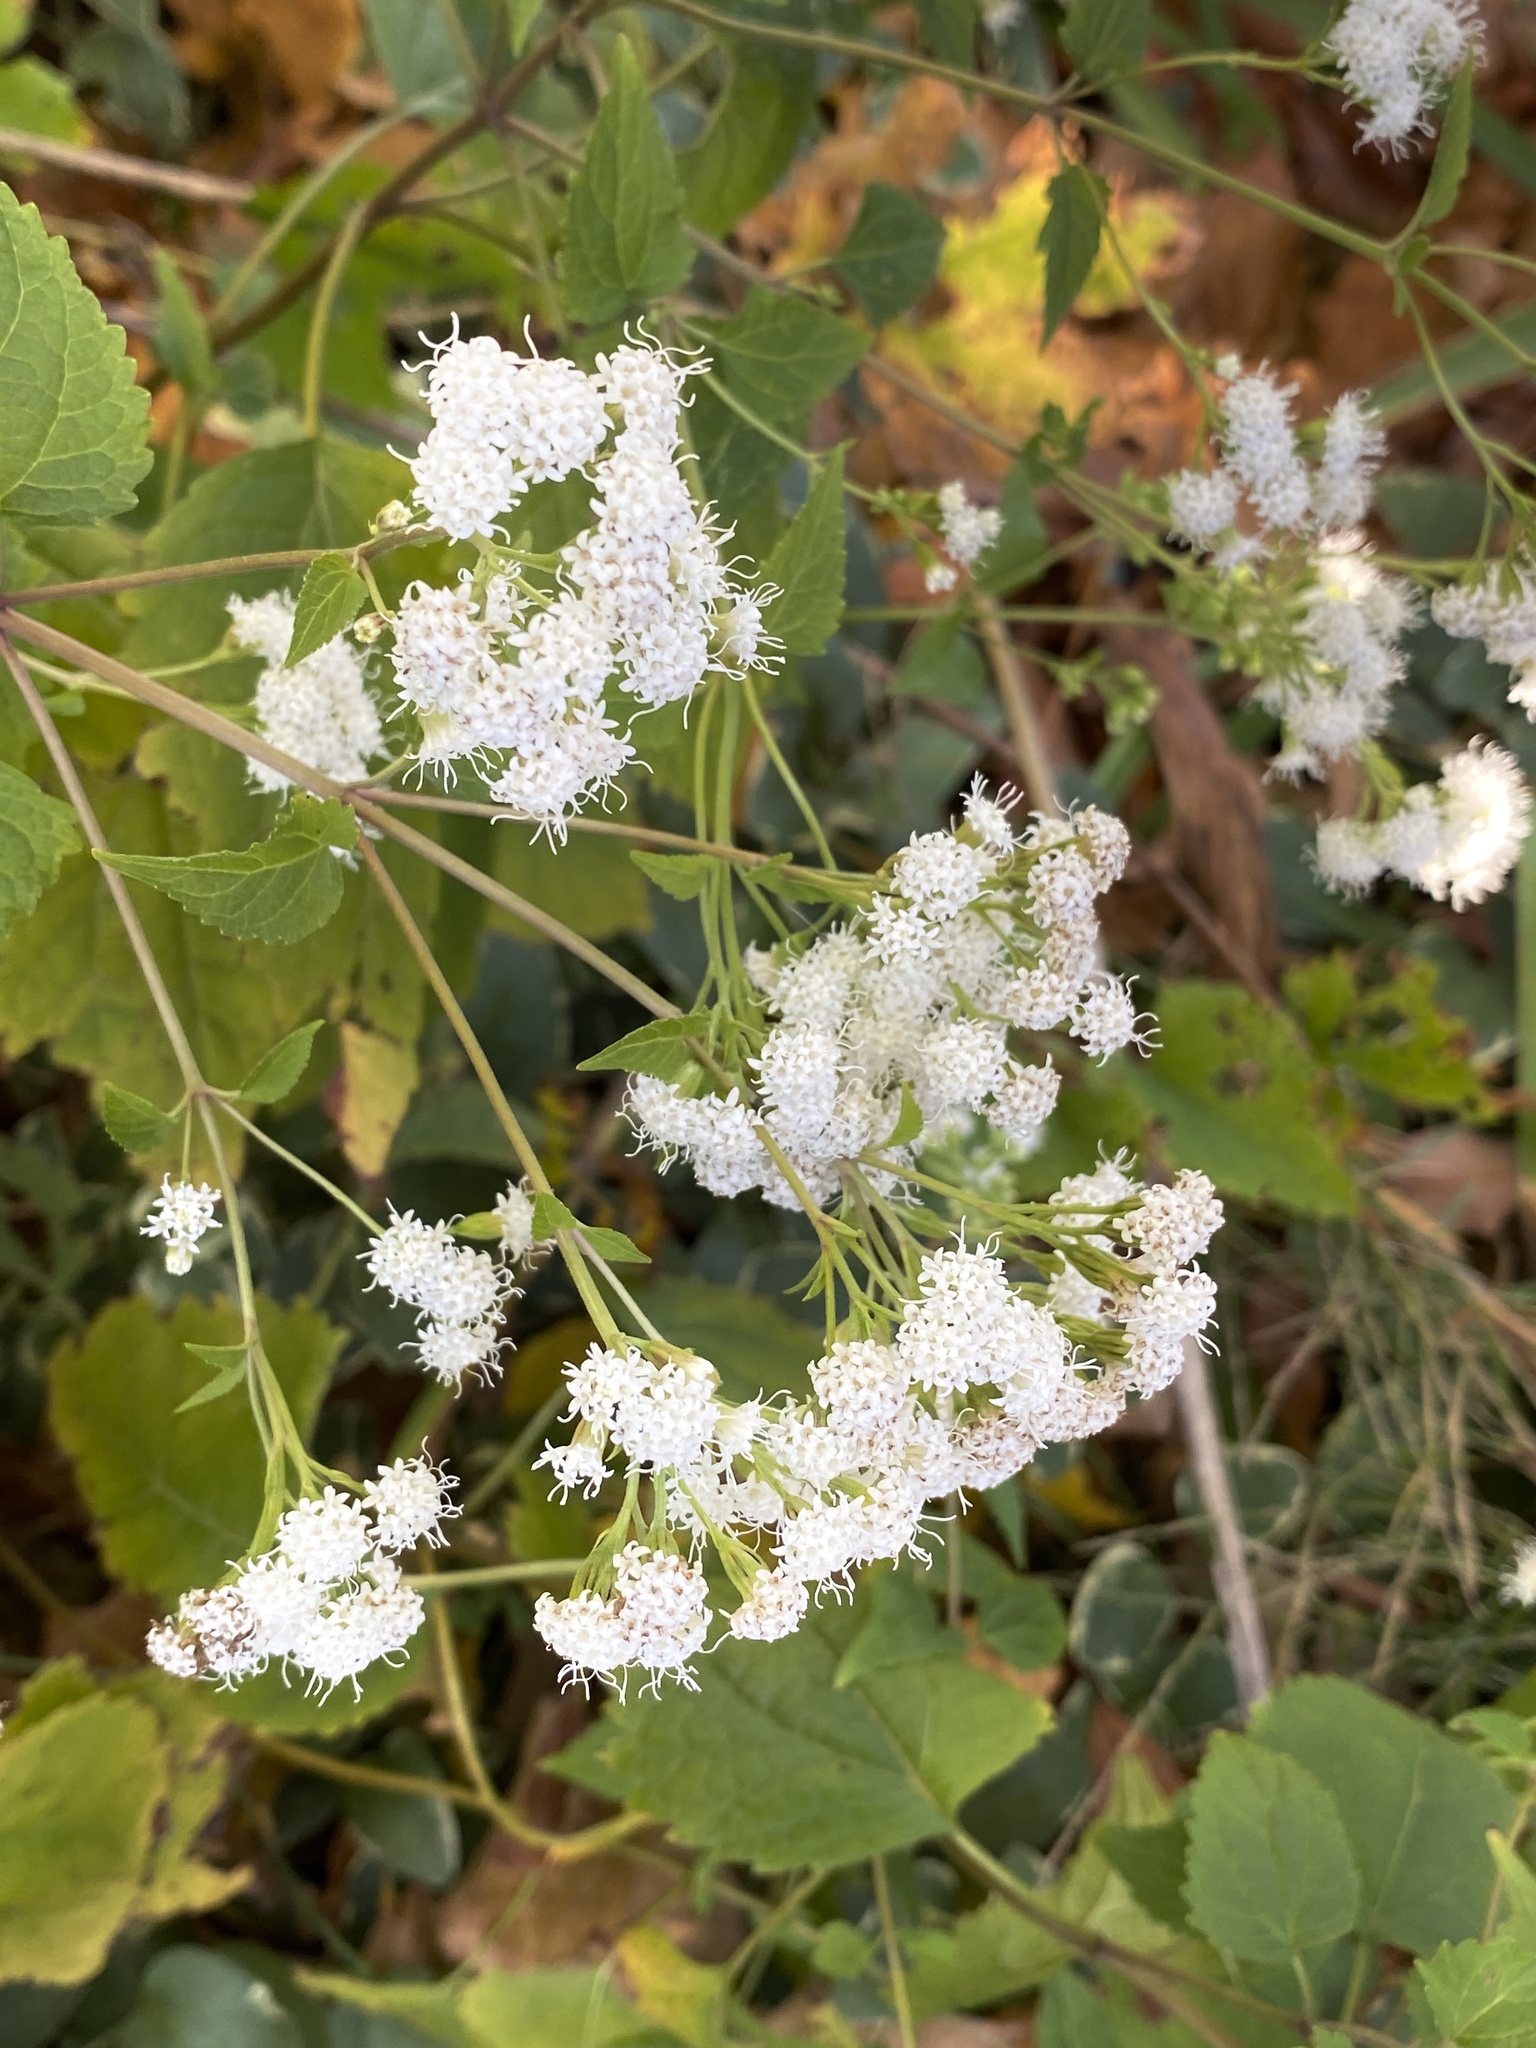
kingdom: Plantae
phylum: Tracheophyta
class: Magnoliopsida
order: Asterales
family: Asteraceae
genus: Ageratina
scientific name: Ageratina altissima
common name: White snakeroot
